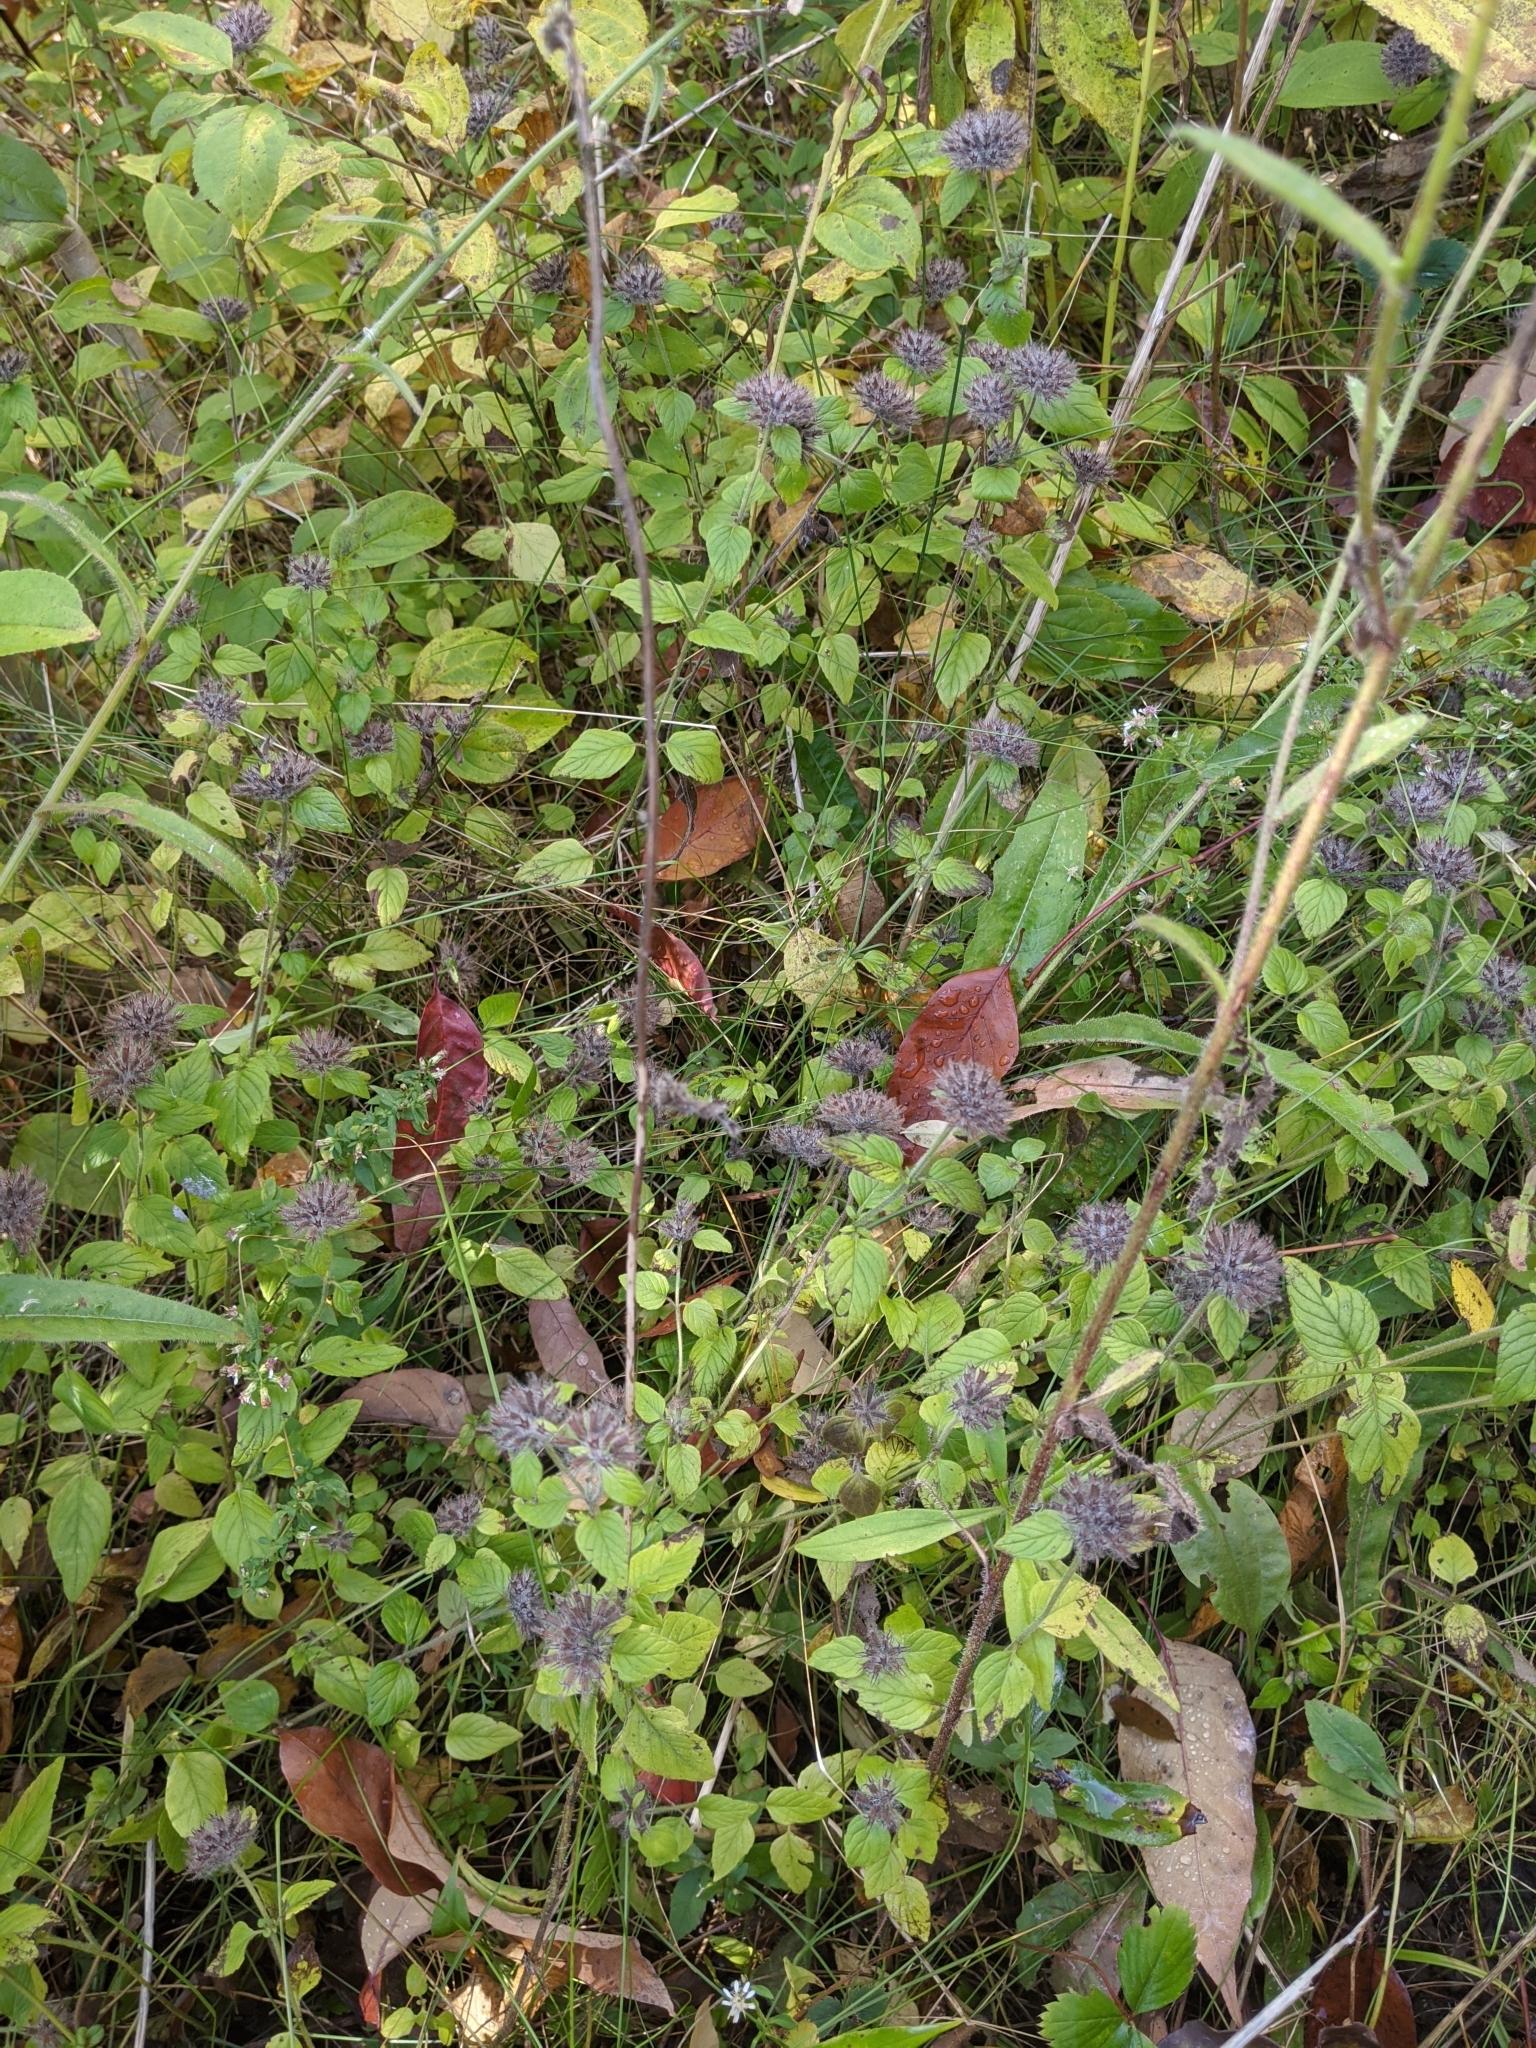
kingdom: Plantae
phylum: Tracheophyta
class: Magnoliopsida
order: Lamiales
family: Lamiaceae
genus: Clinopodium
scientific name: Clinopodium vulgare
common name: Wild basil
